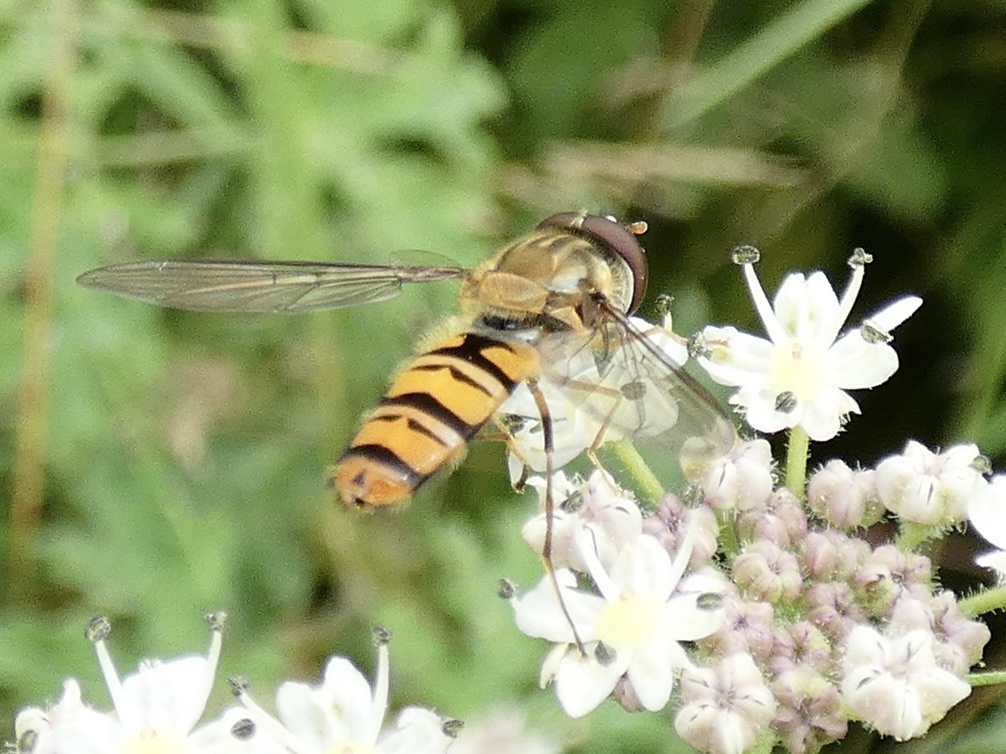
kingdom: Animalia
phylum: Arthropoda
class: Insecta
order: Diptera
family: Syrphidae
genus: Episyrphus
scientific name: Episyrphus balteatus
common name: Marmalade hoverfly
